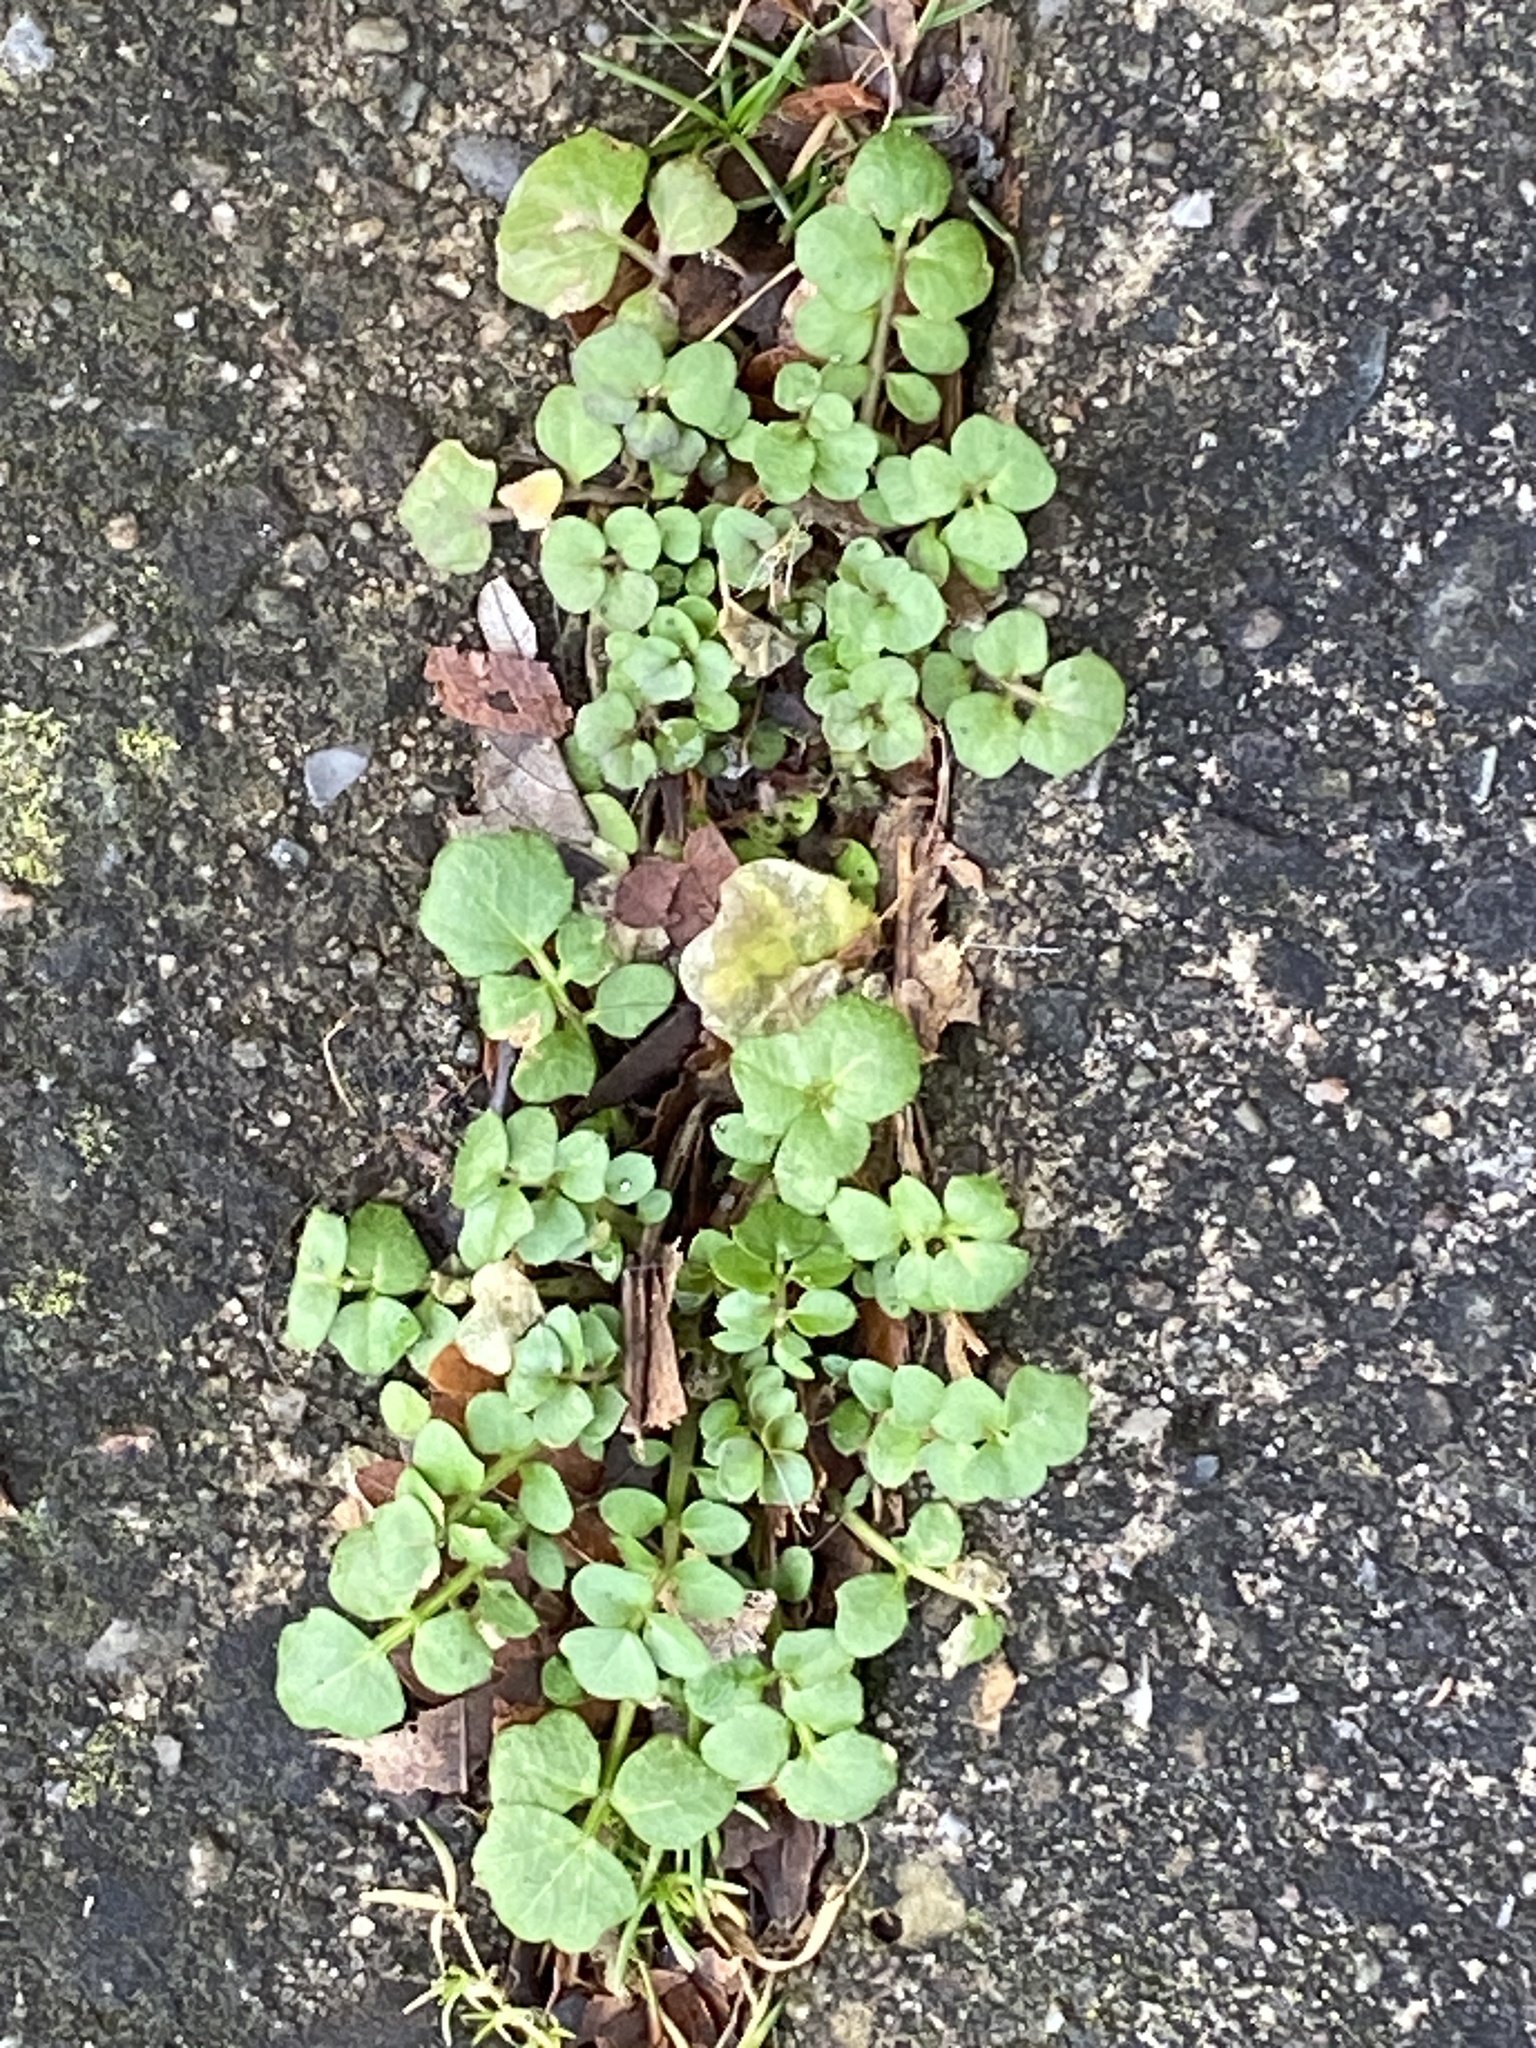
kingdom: Plantae
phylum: Tracheophyta
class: Magnoliopsida
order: Brassicales
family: Brassicaceae
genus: Cardamine
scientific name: Cardamine hirsuta
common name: Hairy bittercress
